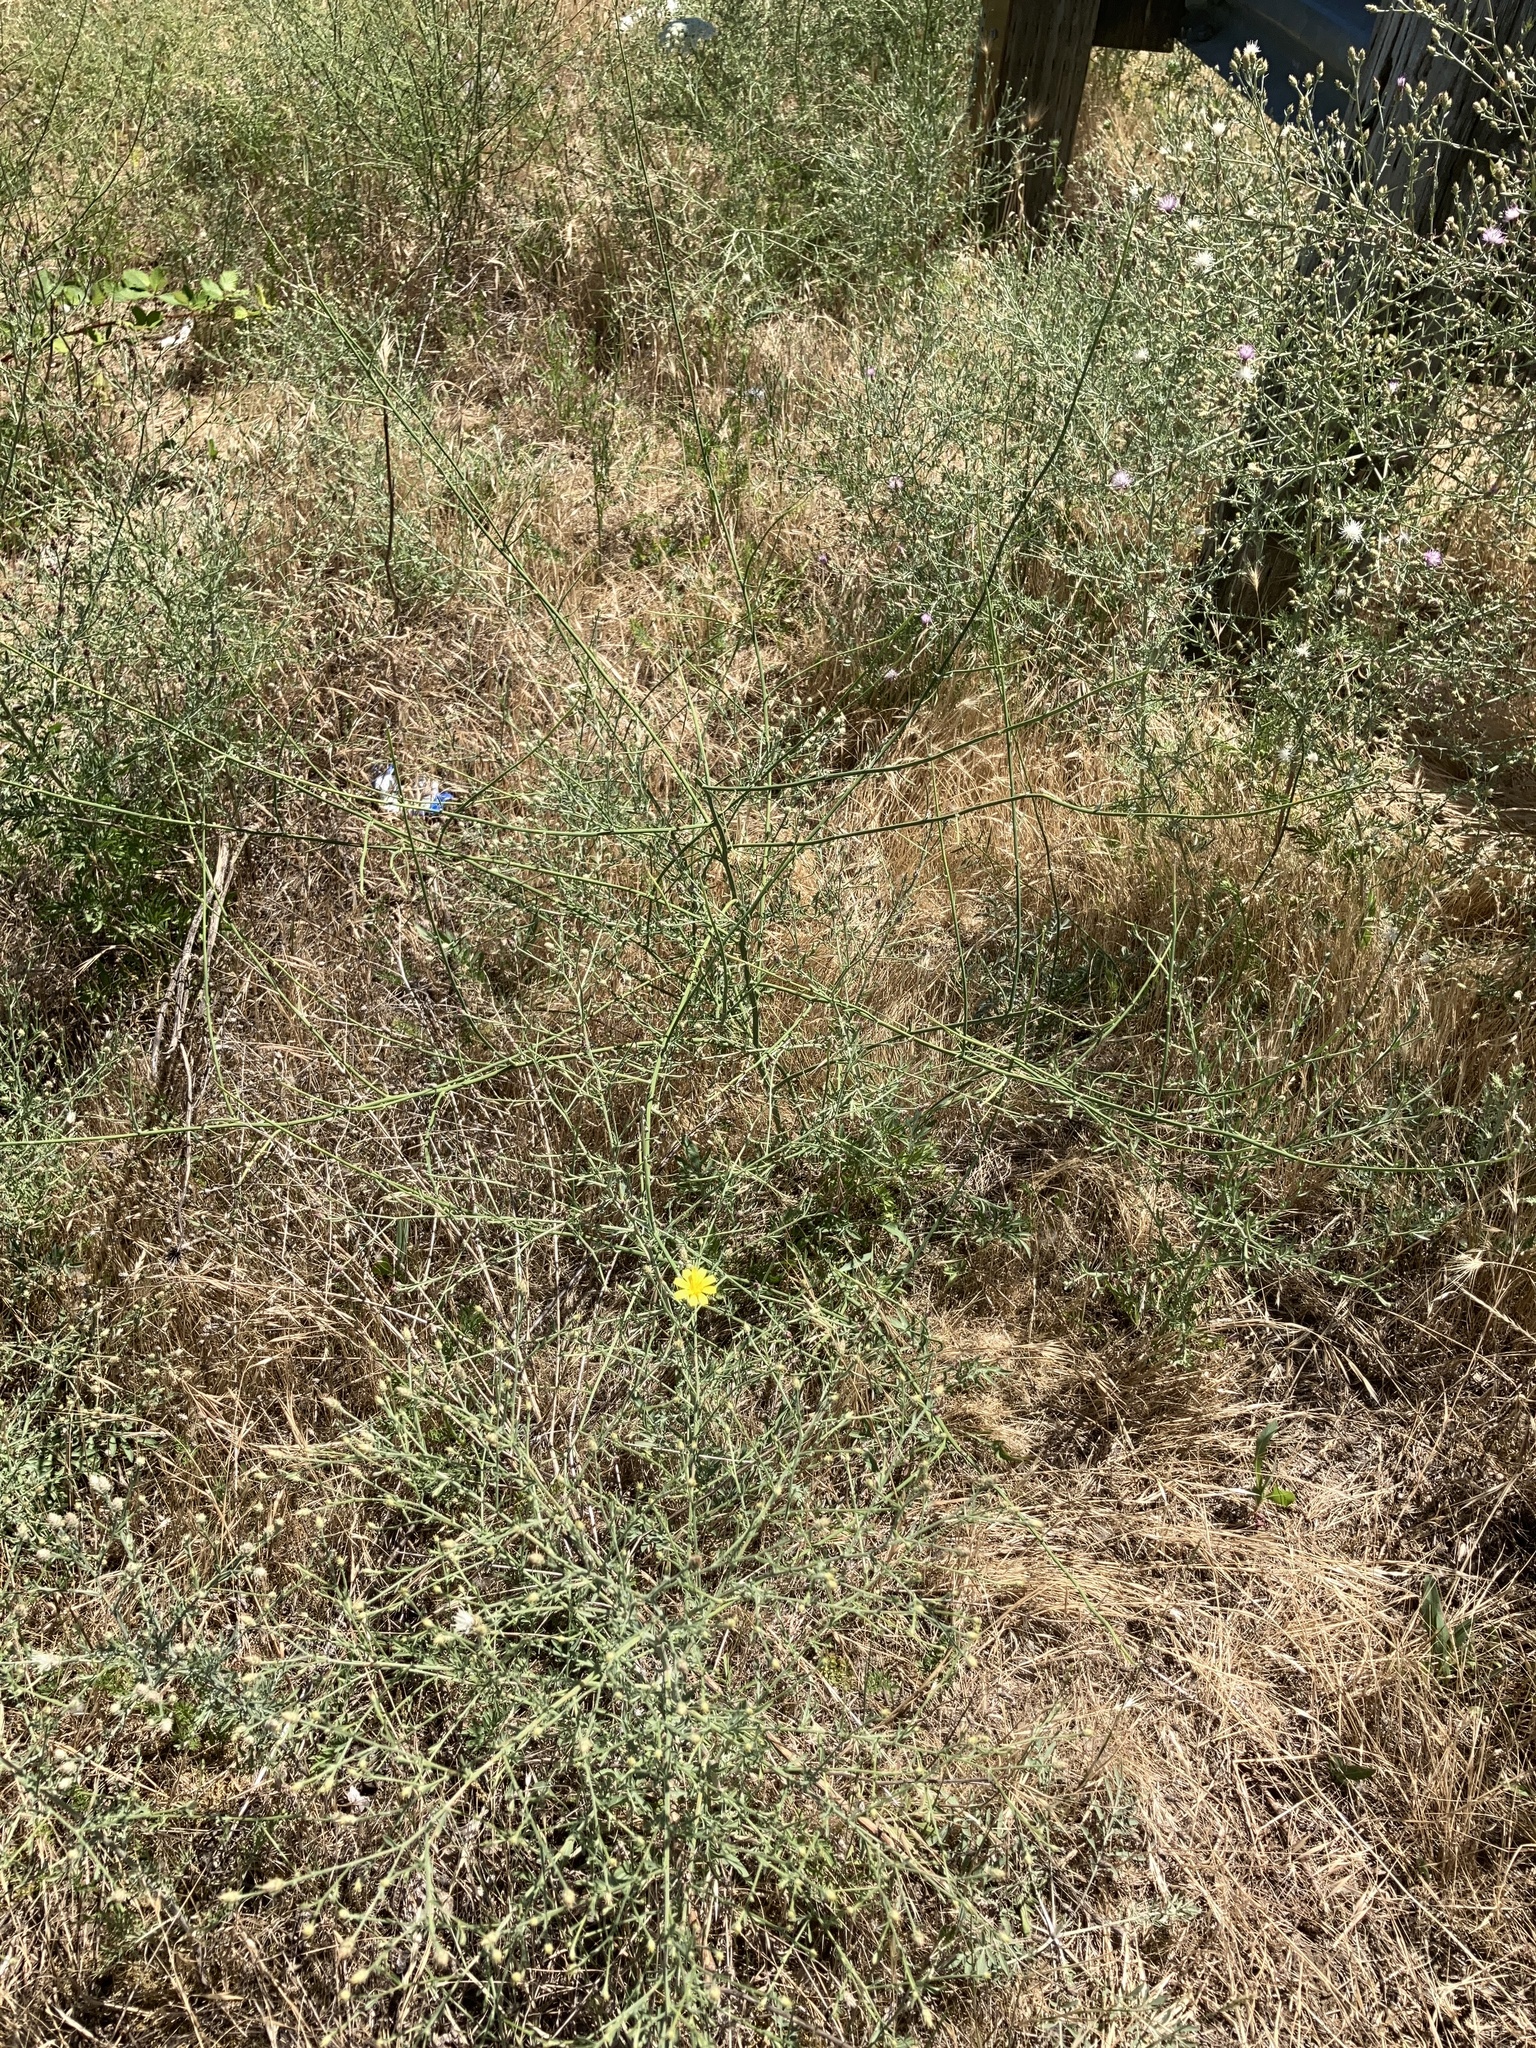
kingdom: Plantae
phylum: Tracheophyta
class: Magnoliopsida
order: Asterales
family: Asteraceae
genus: Chondrilla
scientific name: Chondrilla juncea
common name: Skeleton weed
